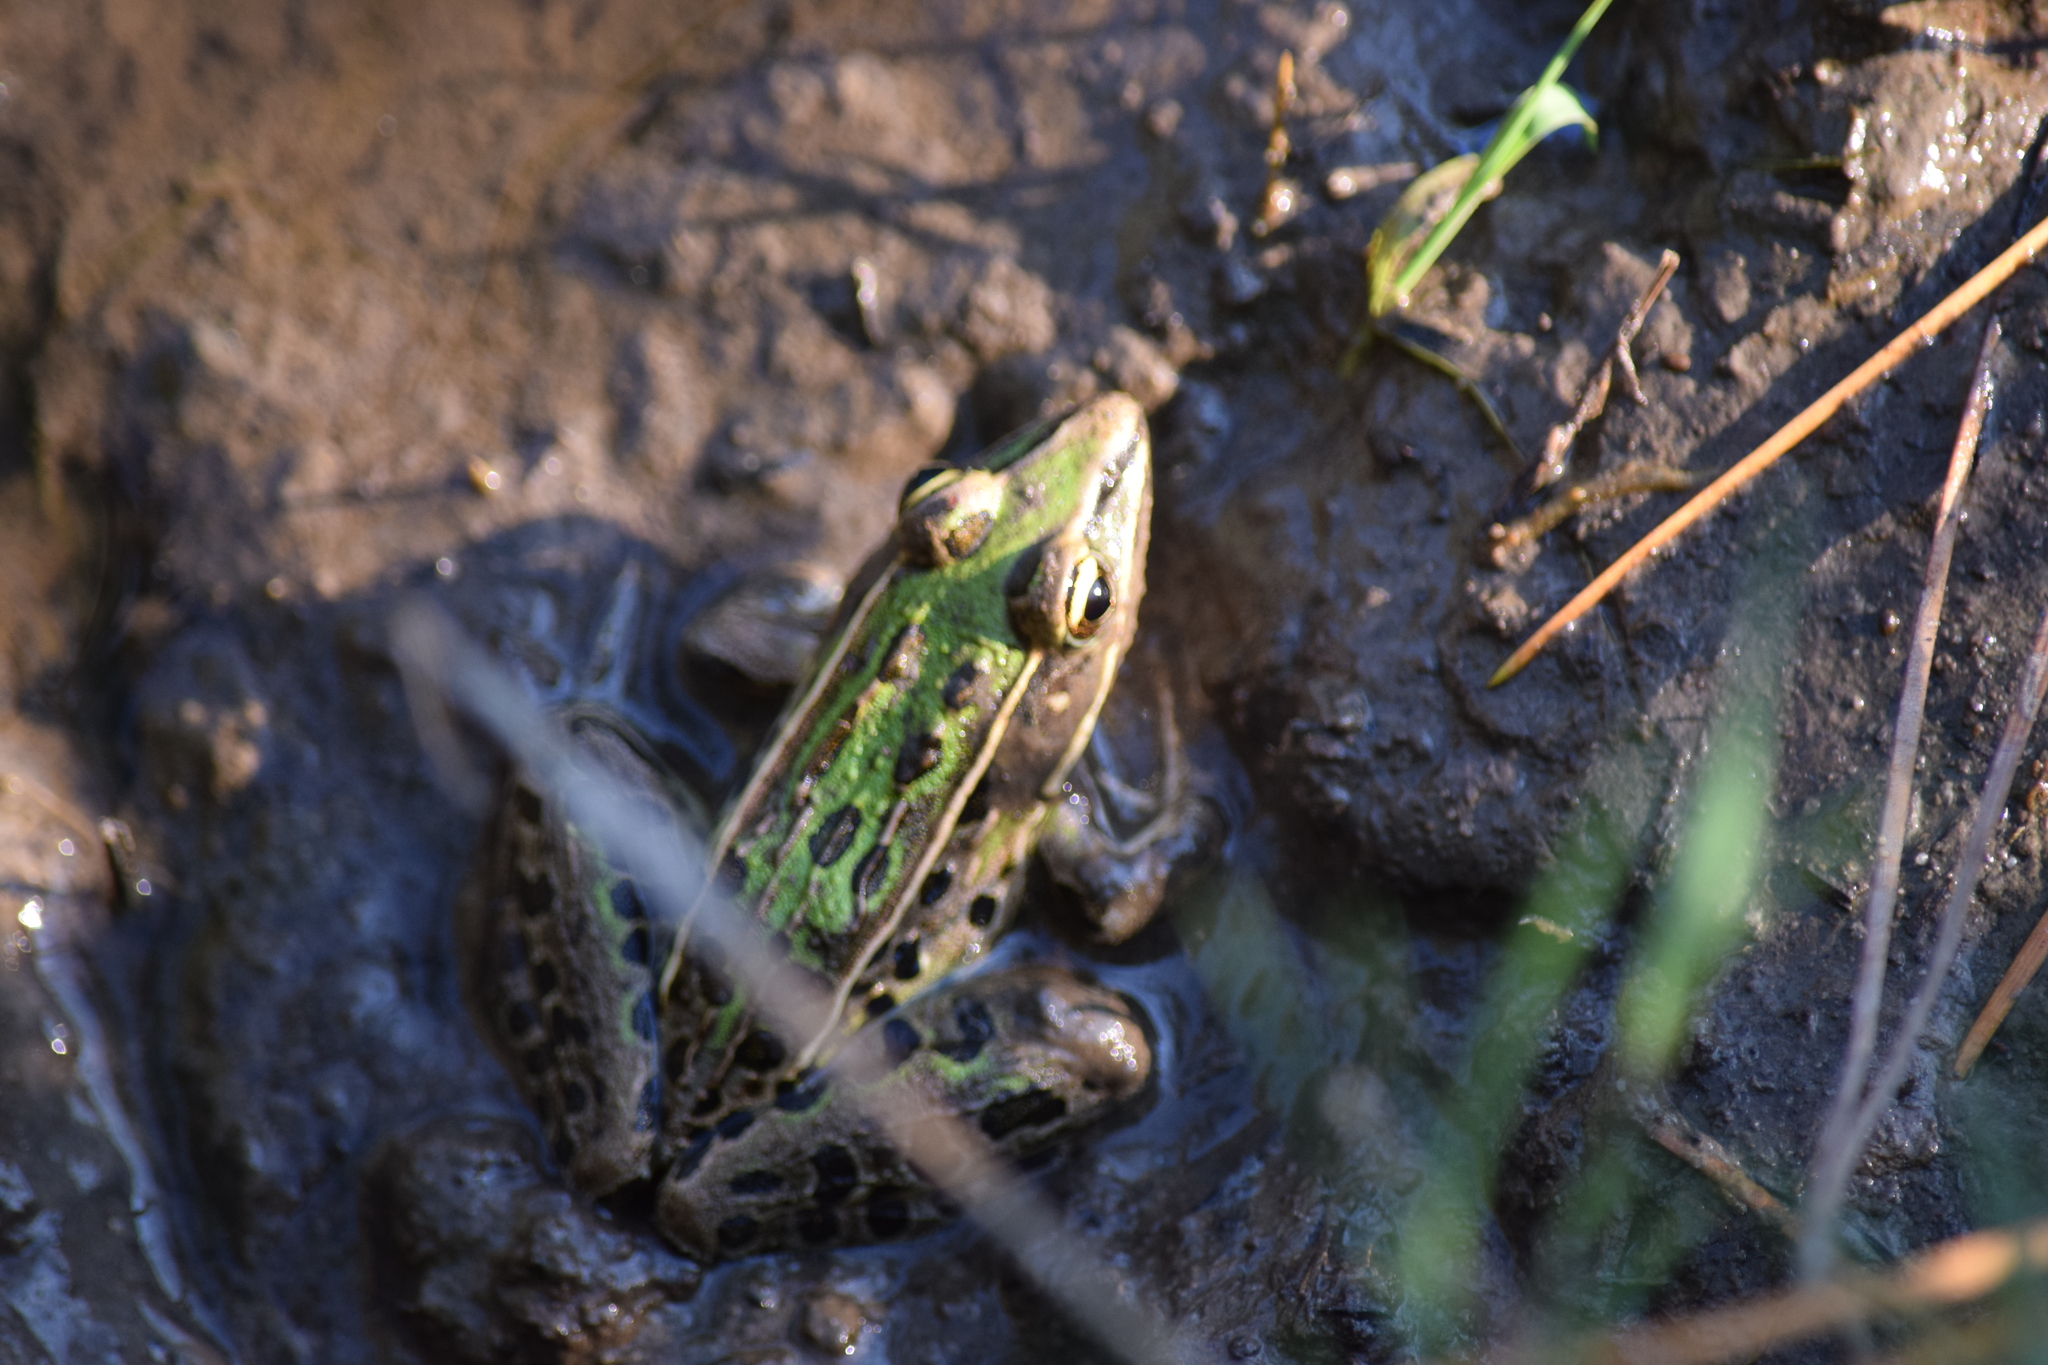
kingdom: Animalia
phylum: Chordata
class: Amphibia
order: Anura
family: Ranidae
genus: Lithobates
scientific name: Lithobates sphenocephalus
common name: Southern leopard frog
